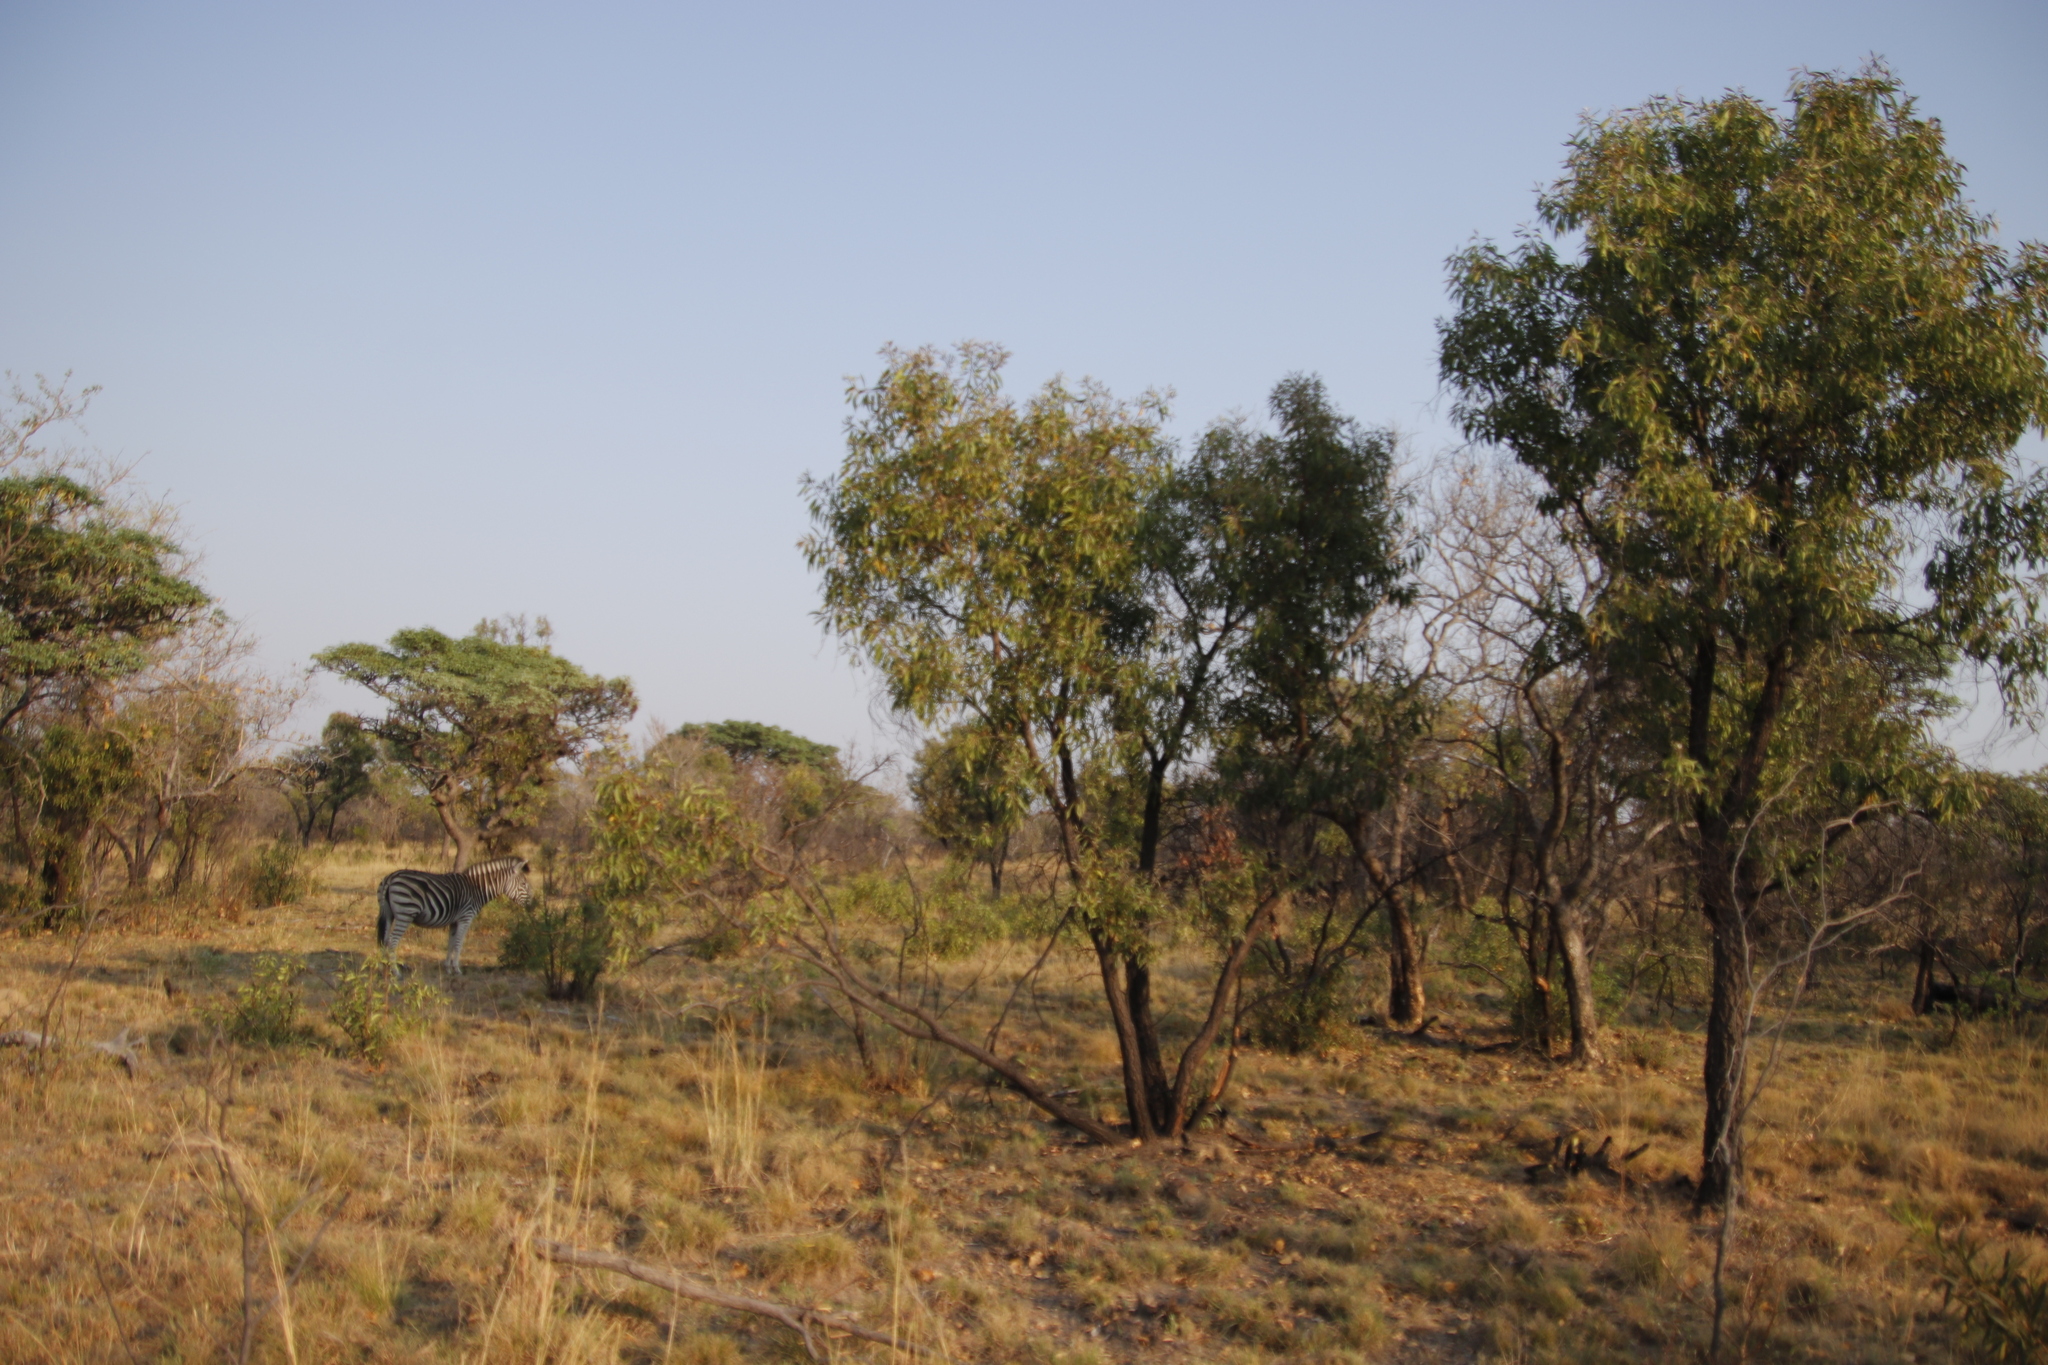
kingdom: Animalia
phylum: Chordata
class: Mammalia
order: Perissodactyla
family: Equidae
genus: Equus
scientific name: Equus quagga
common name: Plains zebra
